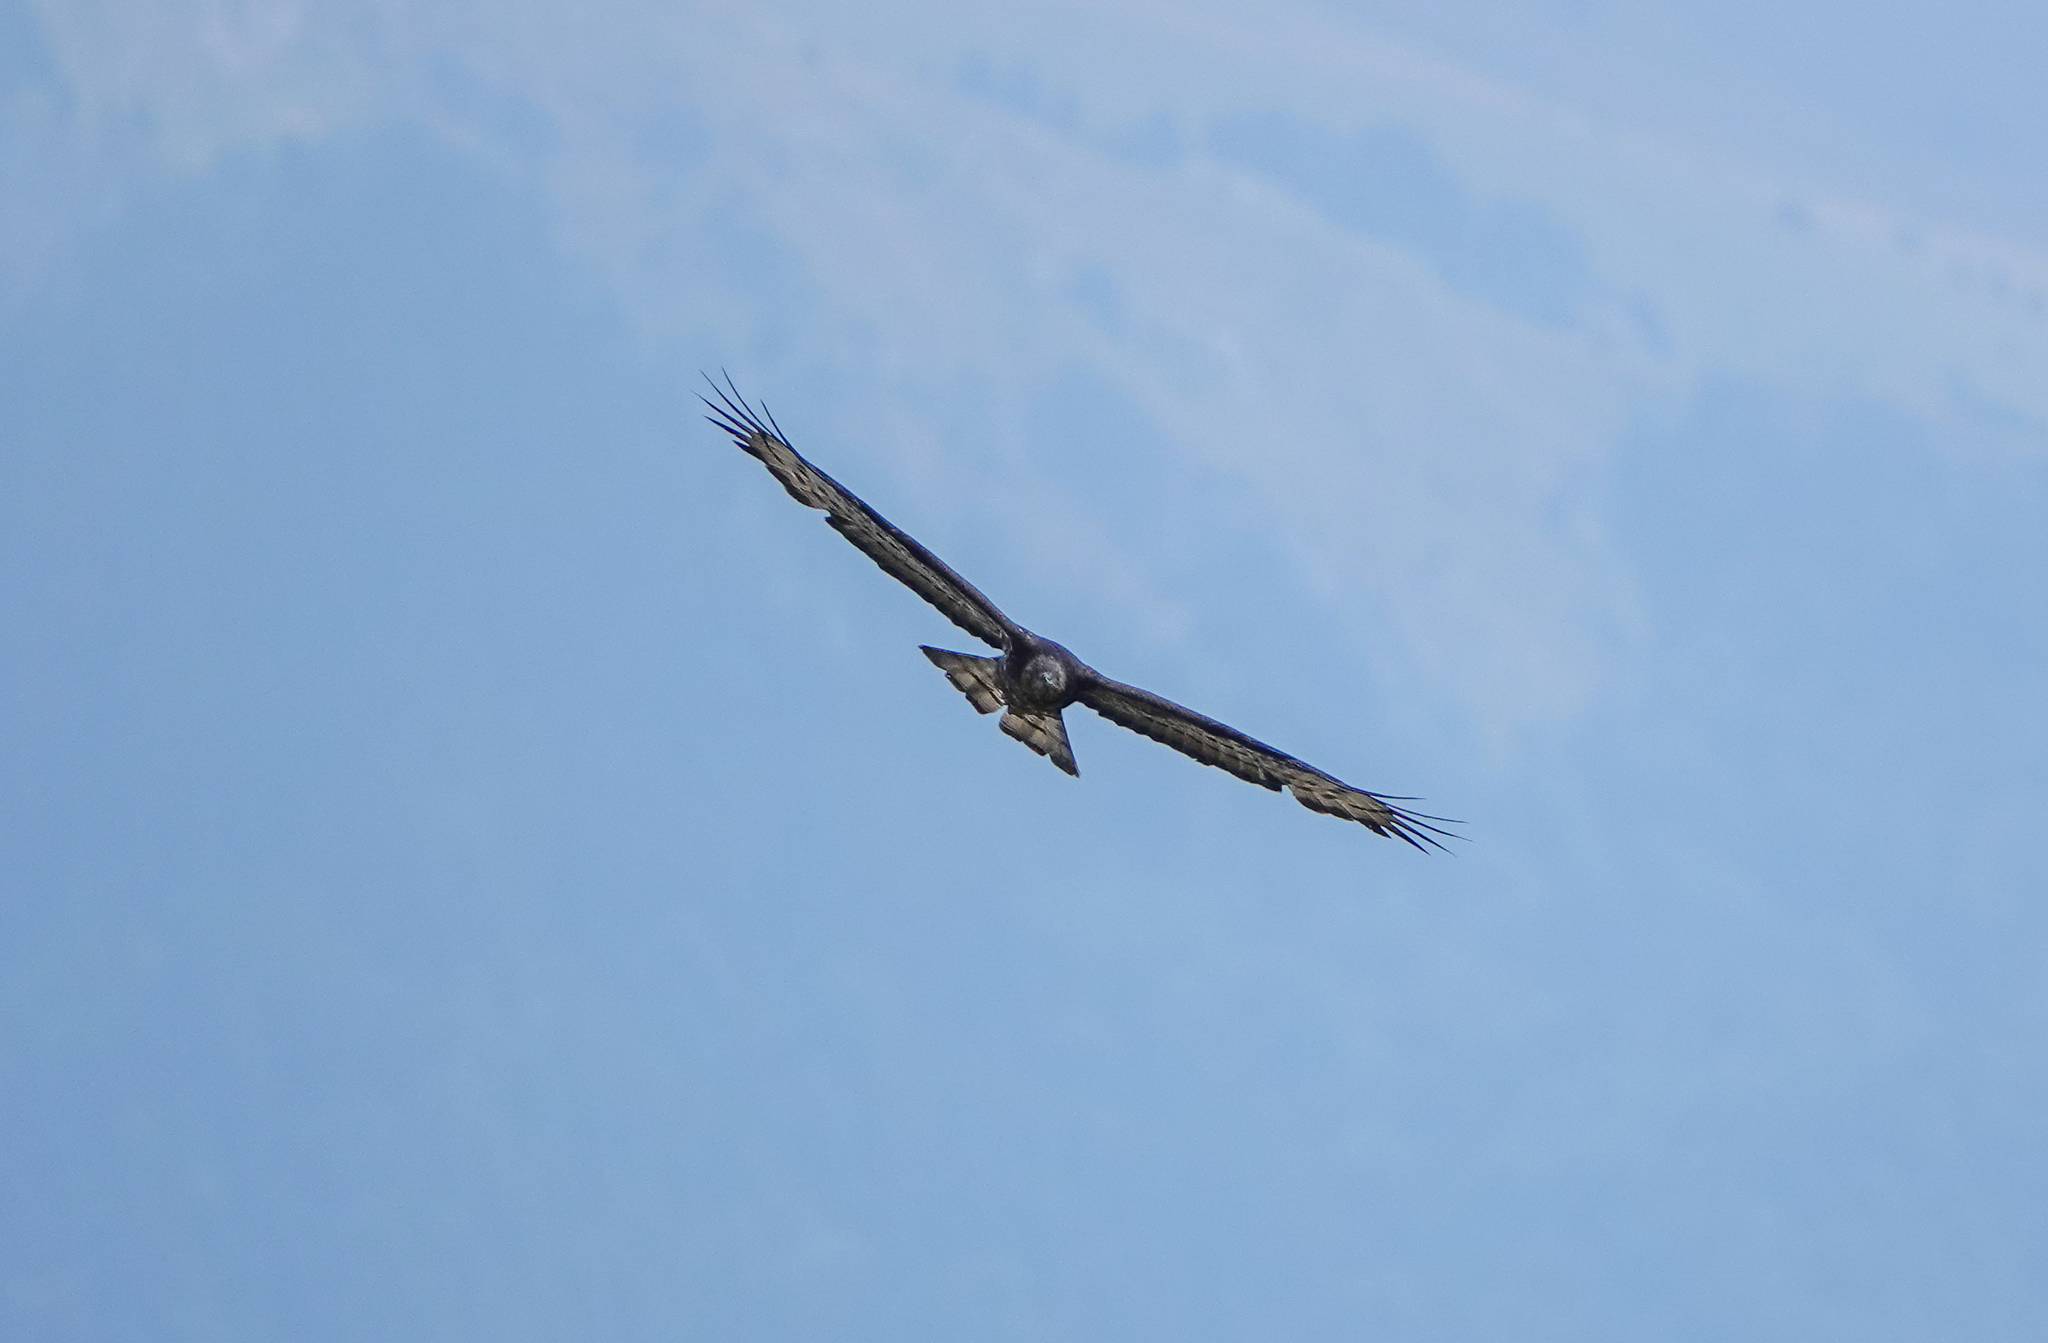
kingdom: Animalia
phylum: Chordata
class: Aves
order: Accipitriformes
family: Accipitridae
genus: Pernis
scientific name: Pernis apivorus
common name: European honey buzzard
